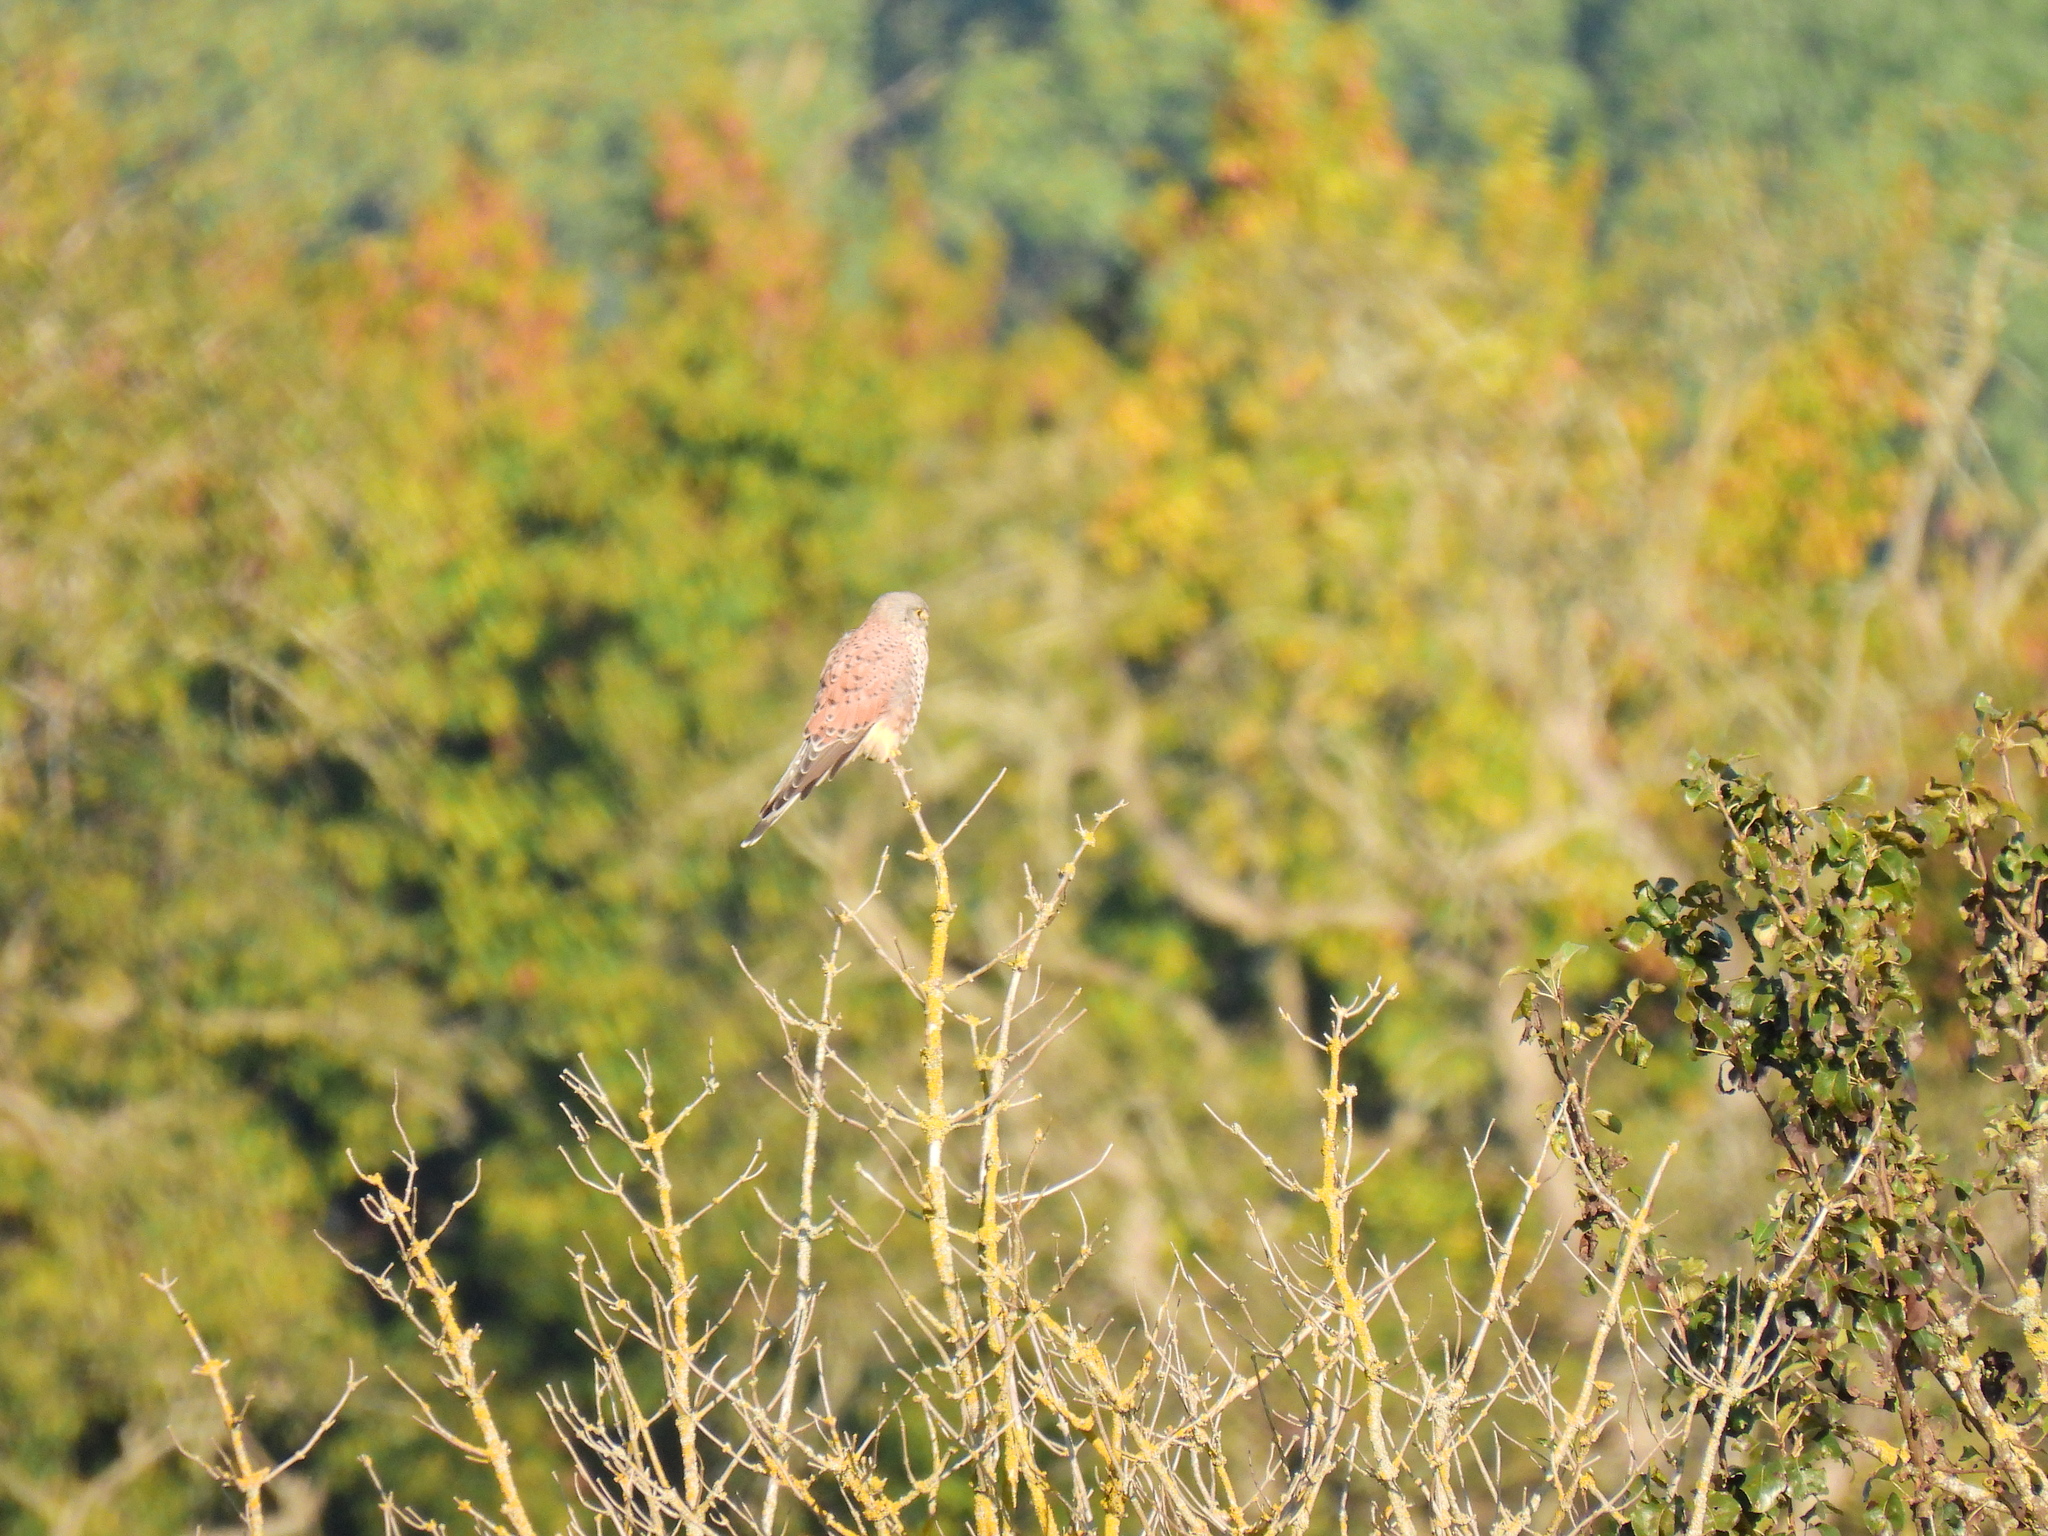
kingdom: Animalia
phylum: Chordata
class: Aves
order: Falconiformes
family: Falconidae
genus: Falco
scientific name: Falco tinnunculus
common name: Common kestrel
